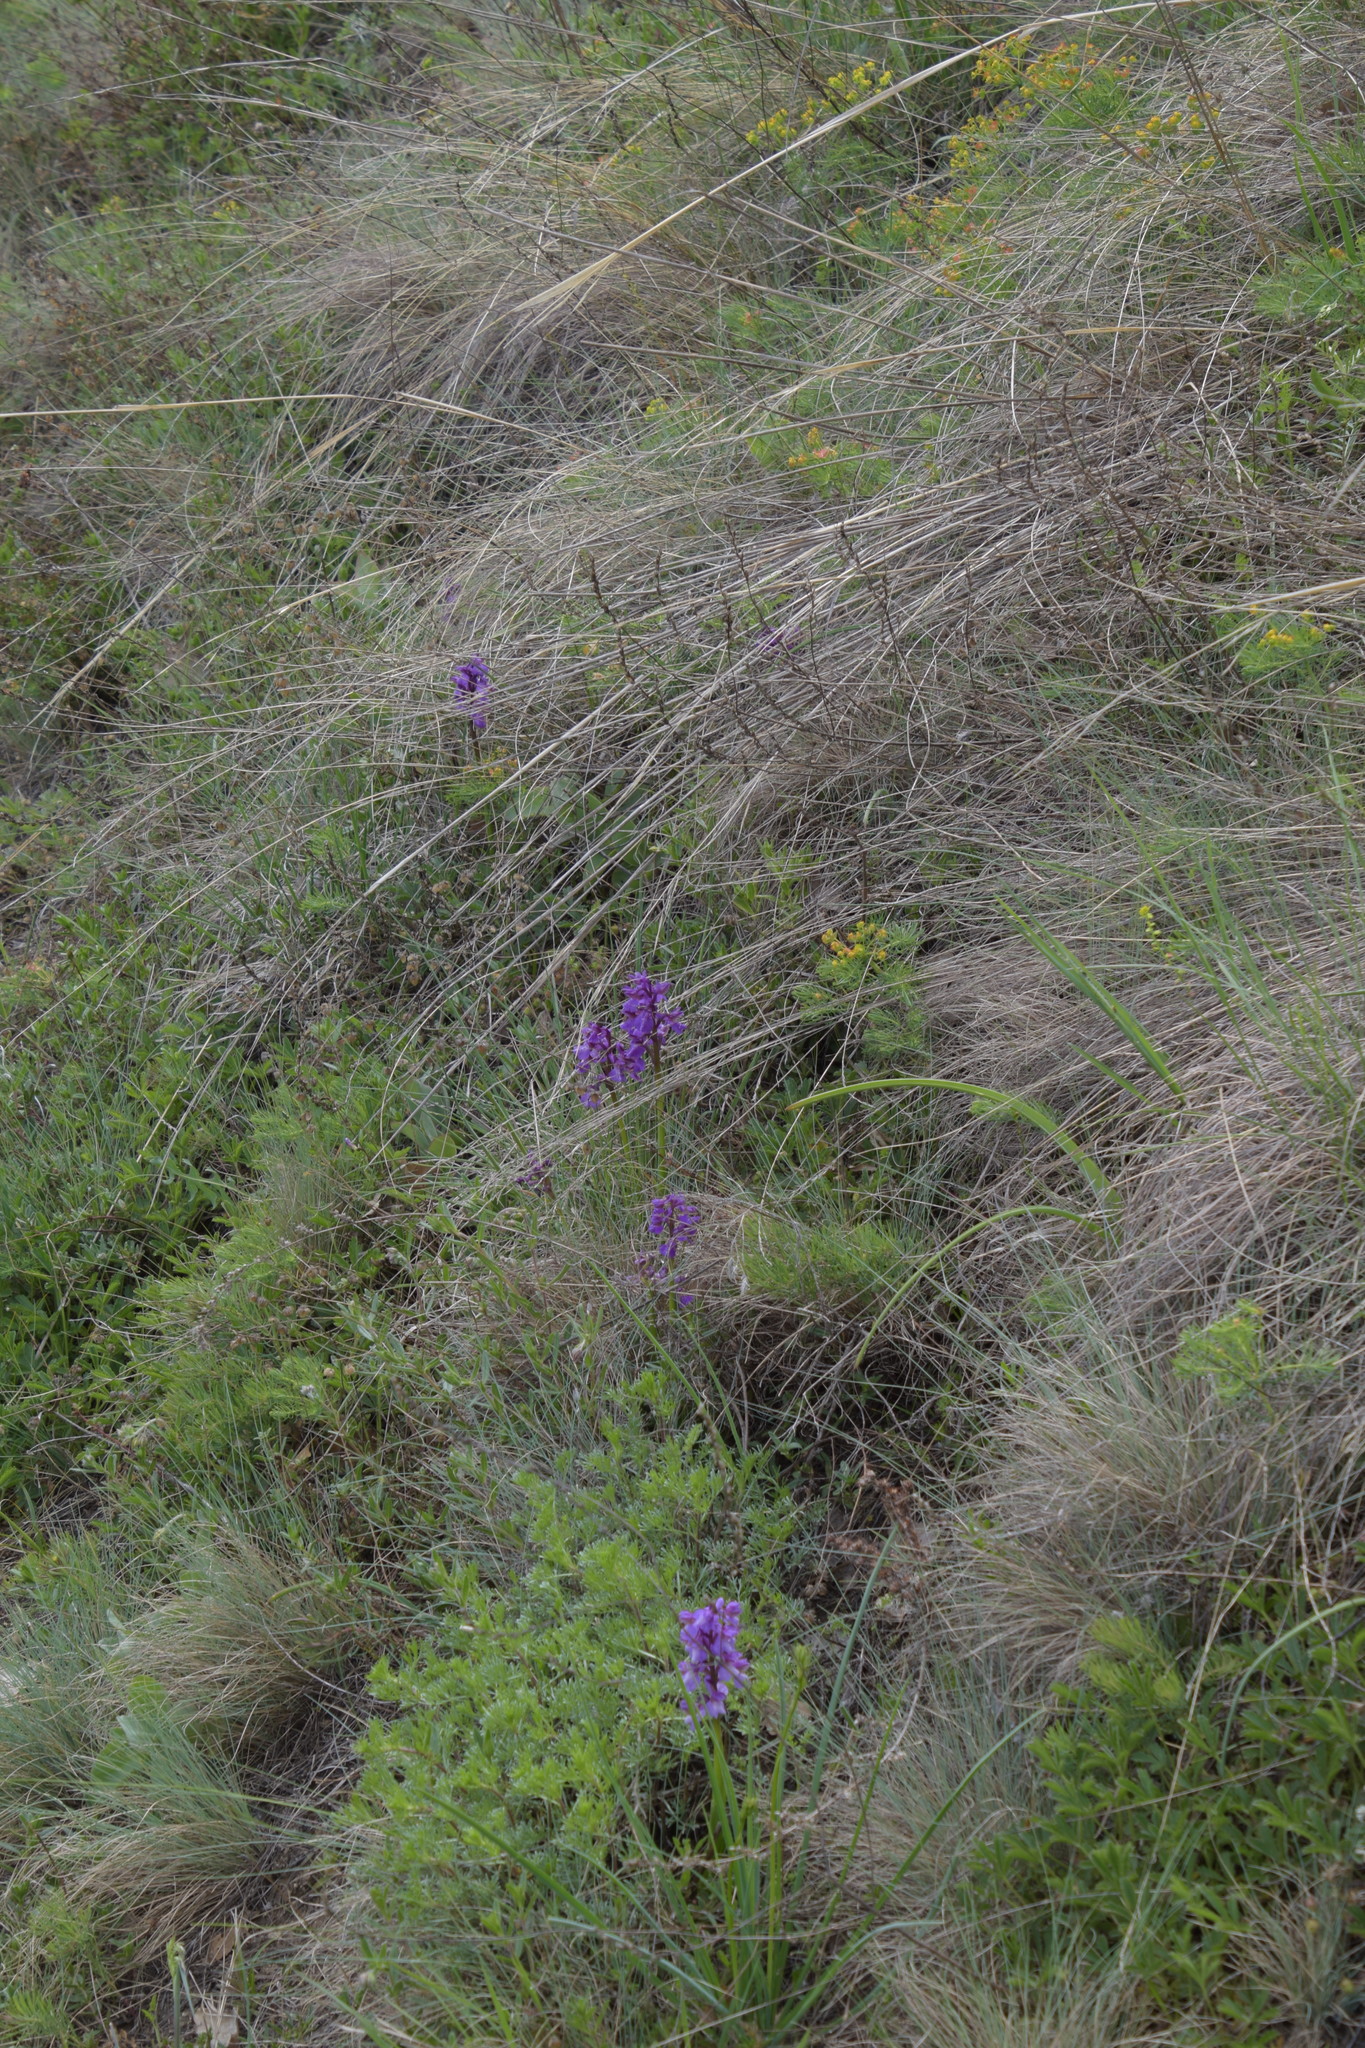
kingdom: Plantae
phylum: Tracheophyta
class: Liliopsida
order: Asparagales
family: Orchidaceae
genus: Anacamptis
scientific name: Anacamptis morio
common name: Green-winged orchid
